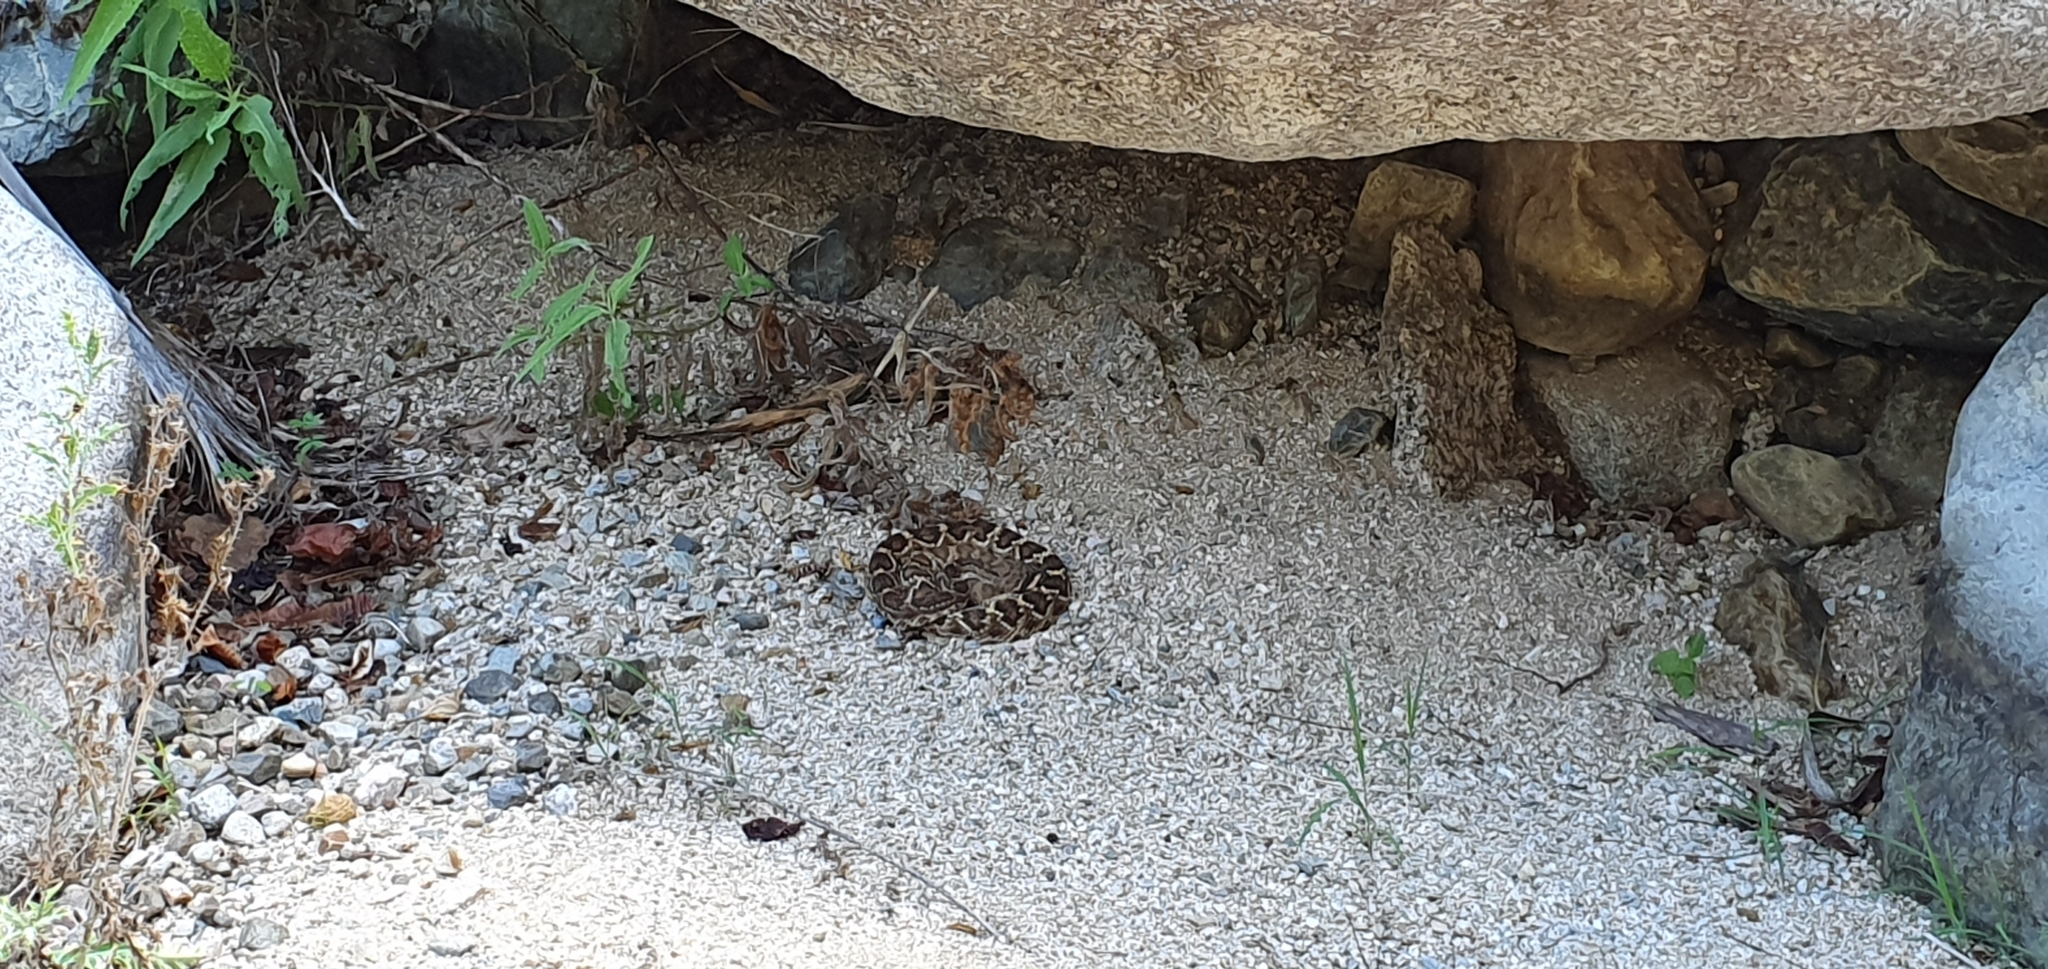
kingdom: Animalia
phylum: Chordata
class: Squamata
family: Viperidae
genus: Crotalus
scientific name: Crotalus ruber
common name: Red diamond rattlesnake
